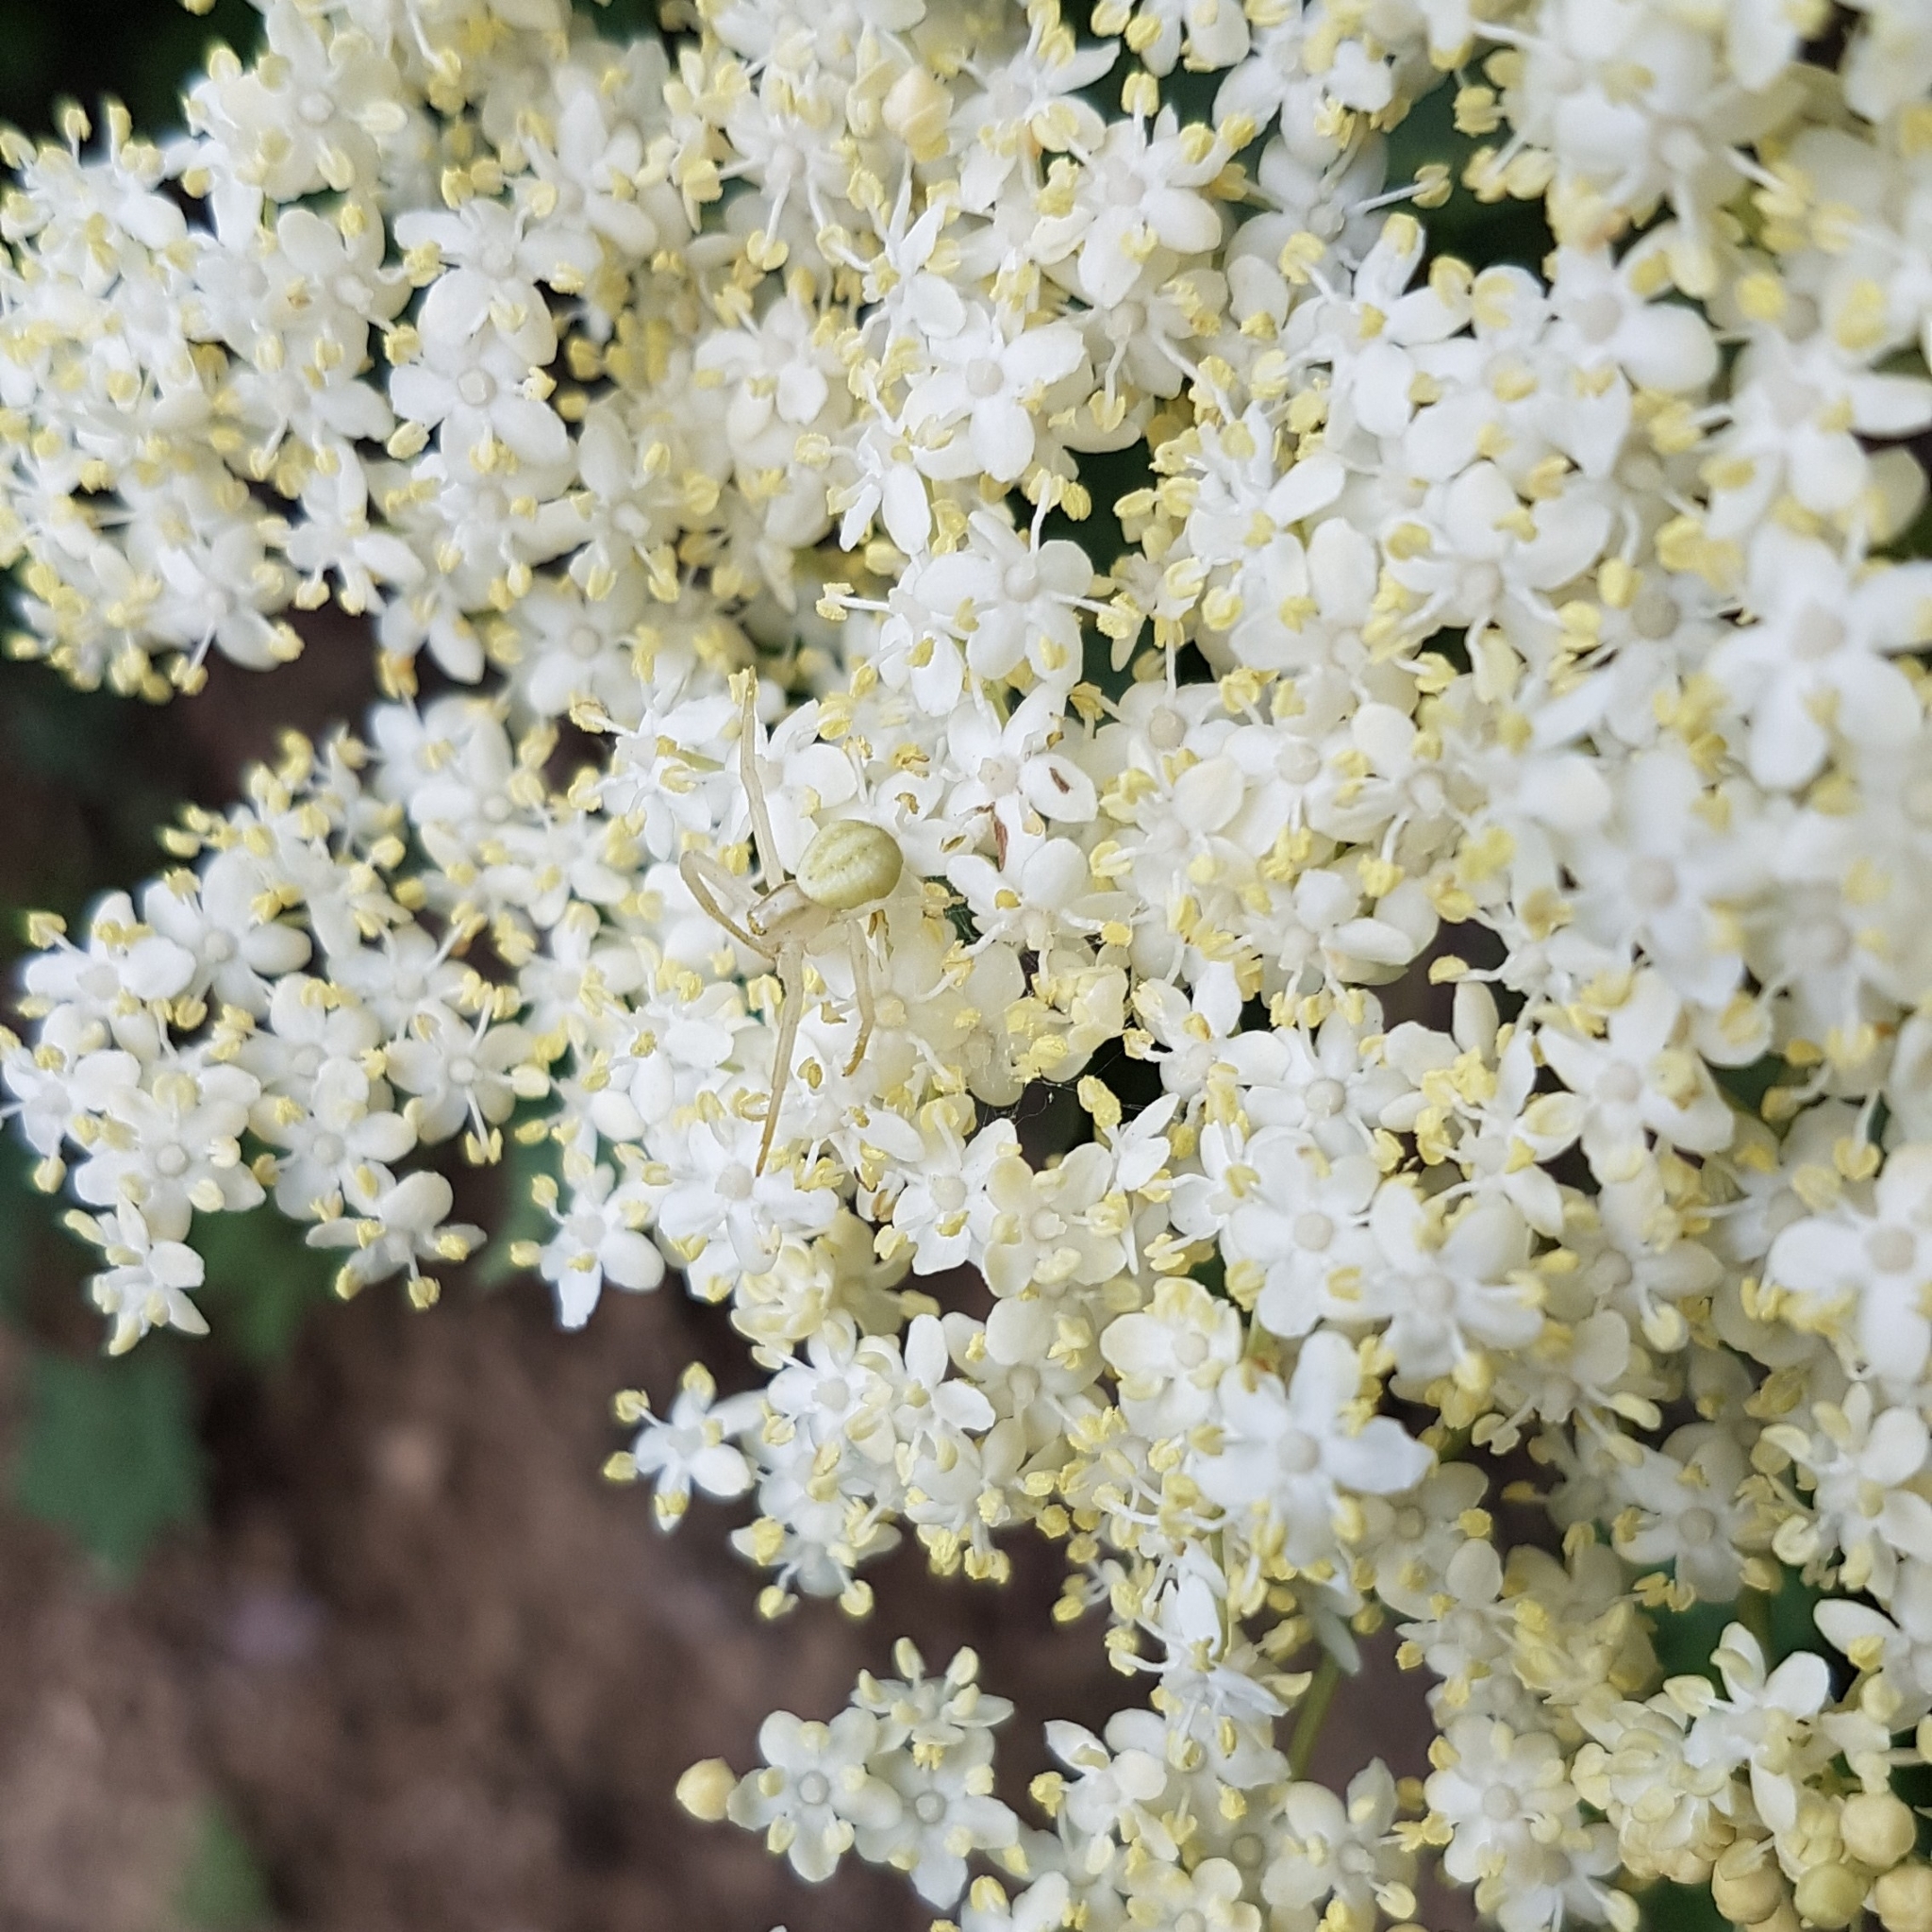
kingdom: Animalia
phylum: Arthropoda
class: Arachnida
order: Araneae
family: Thomisidae
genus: Misumena
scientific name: Misumena vatia
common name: Goldenrod crab spider
